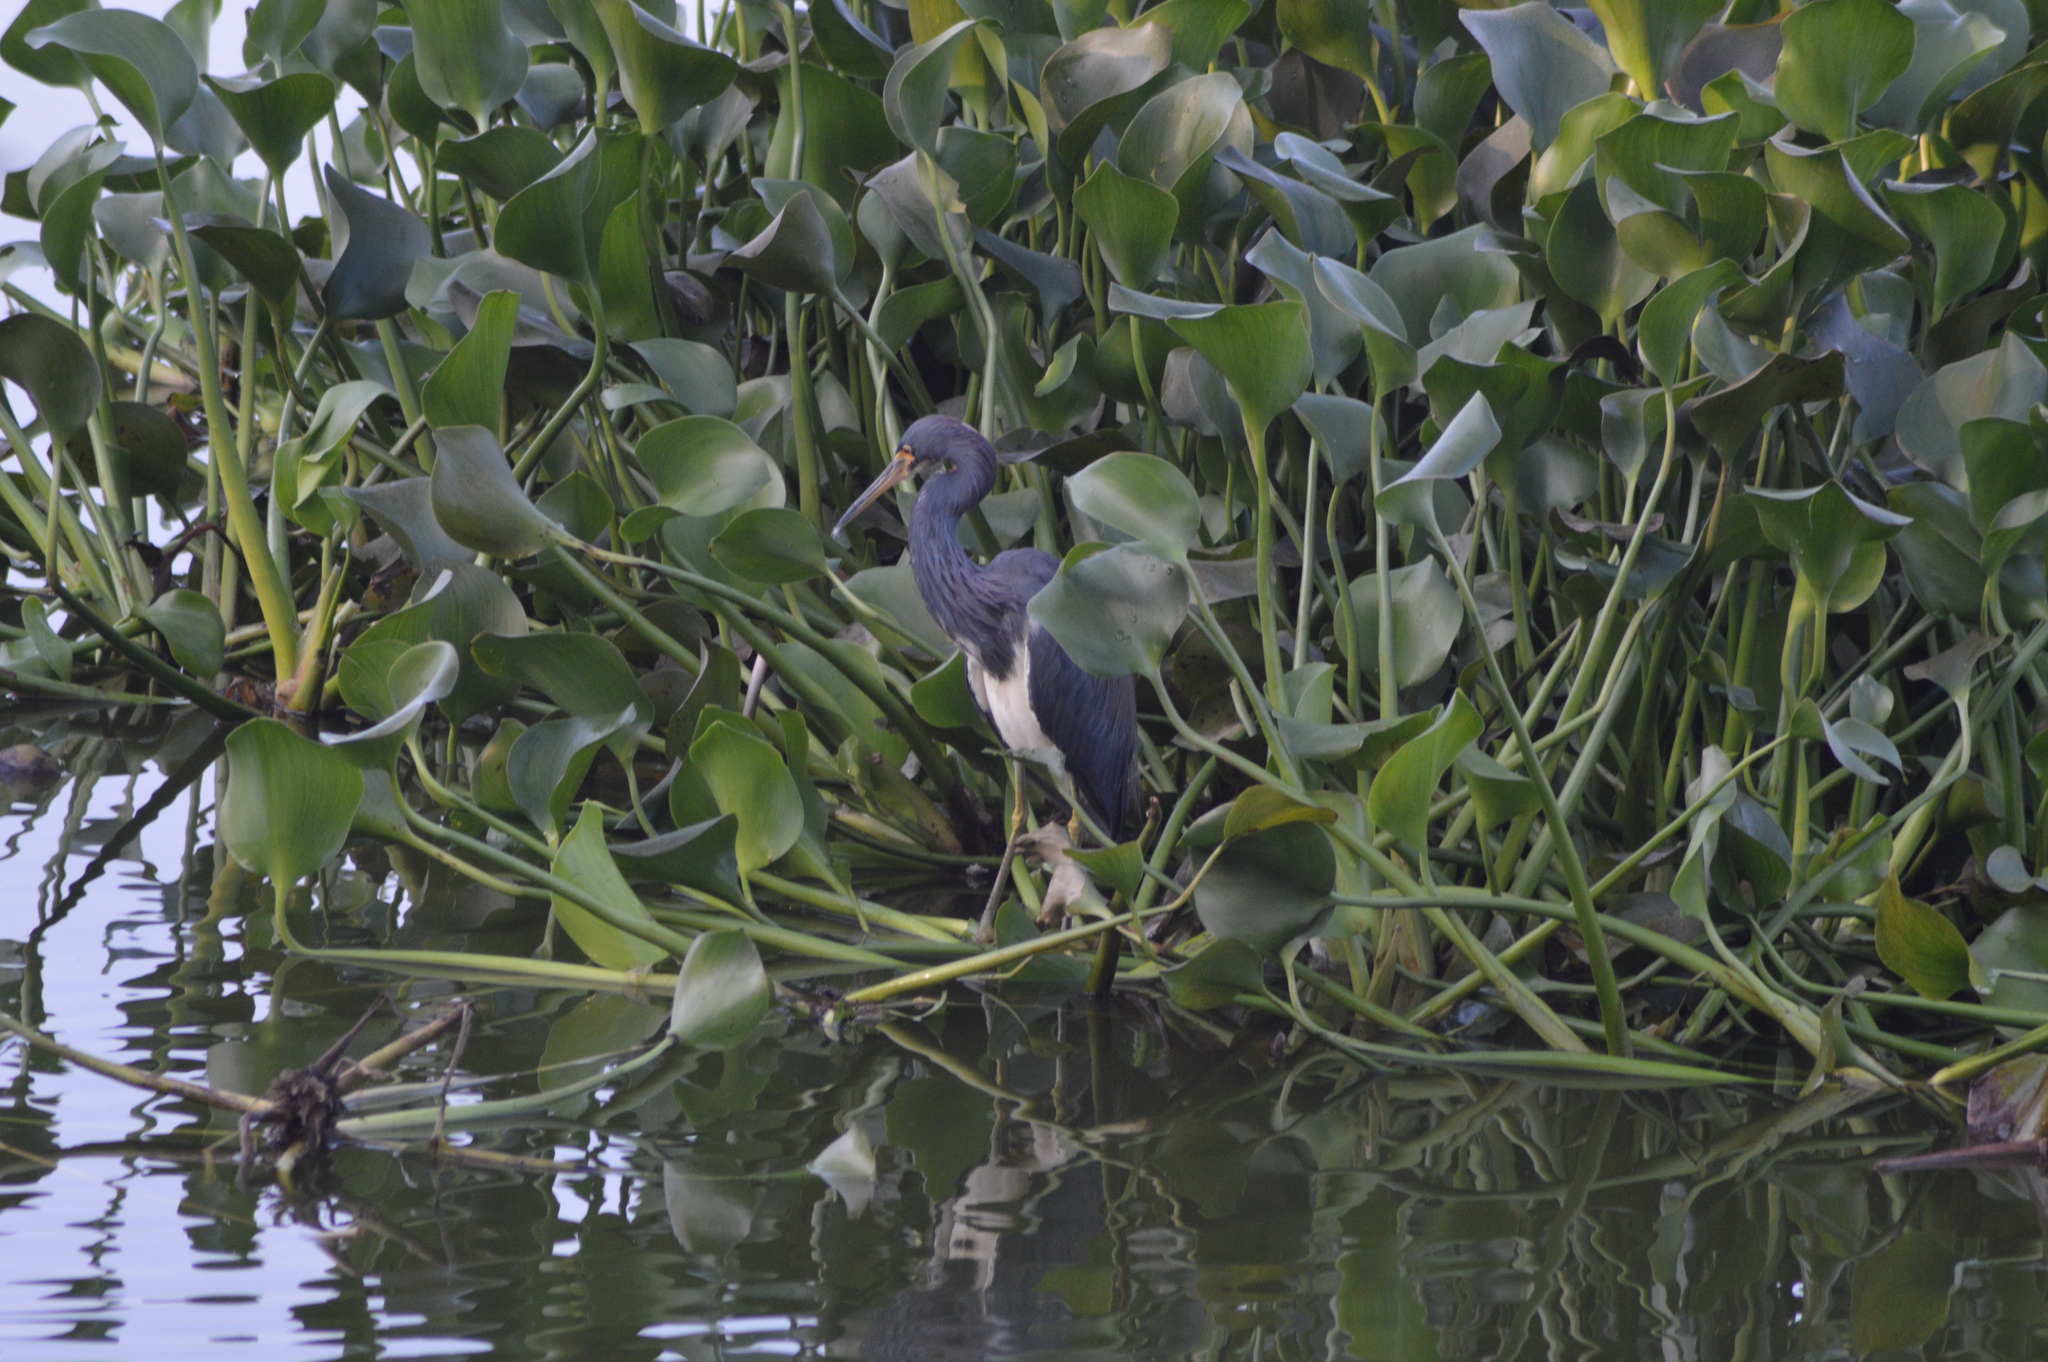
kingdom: Animalia
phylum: Chordata
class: Aves
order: Pelecaniformes
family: Ardeidae
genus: Egretta
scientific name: Egretta tricolor
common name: Tricolored heron
